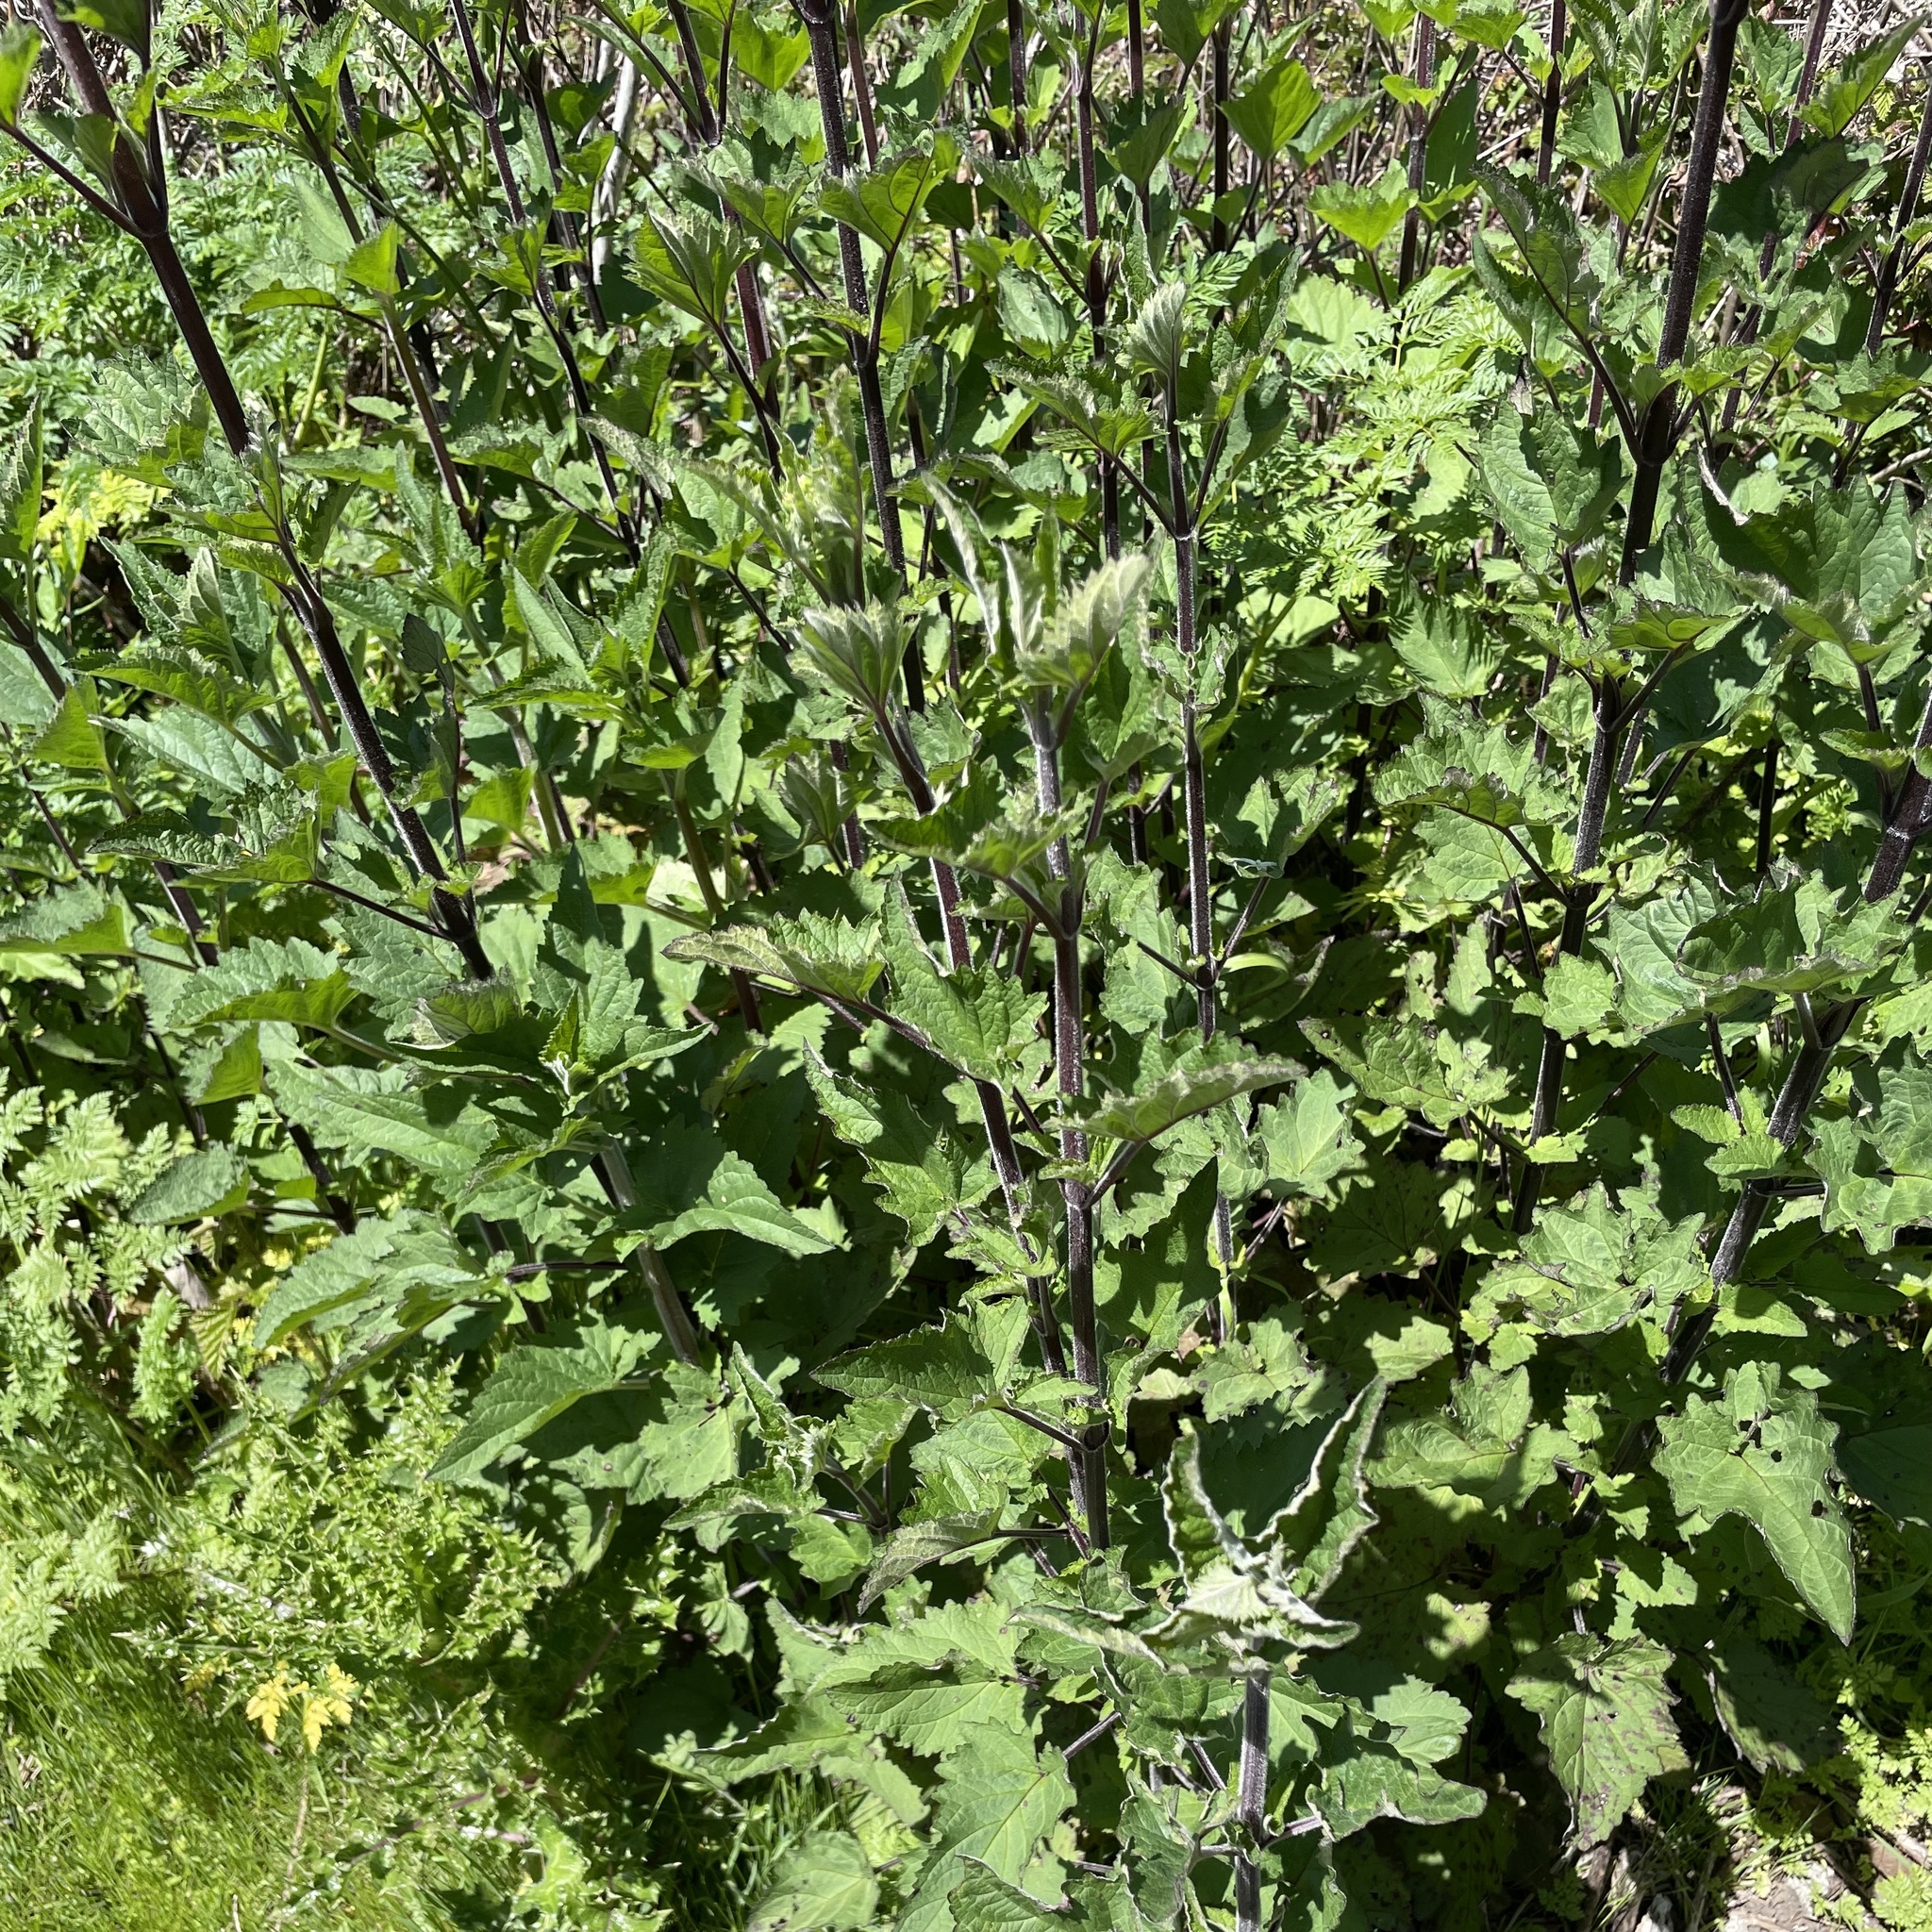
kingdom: Plantae
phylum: Tracheophyta
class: Magnoliopsida
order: Lamiales
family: Scrophulariaceae
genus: Scrophularia
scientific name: Scrophularia californica
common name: California figwort
